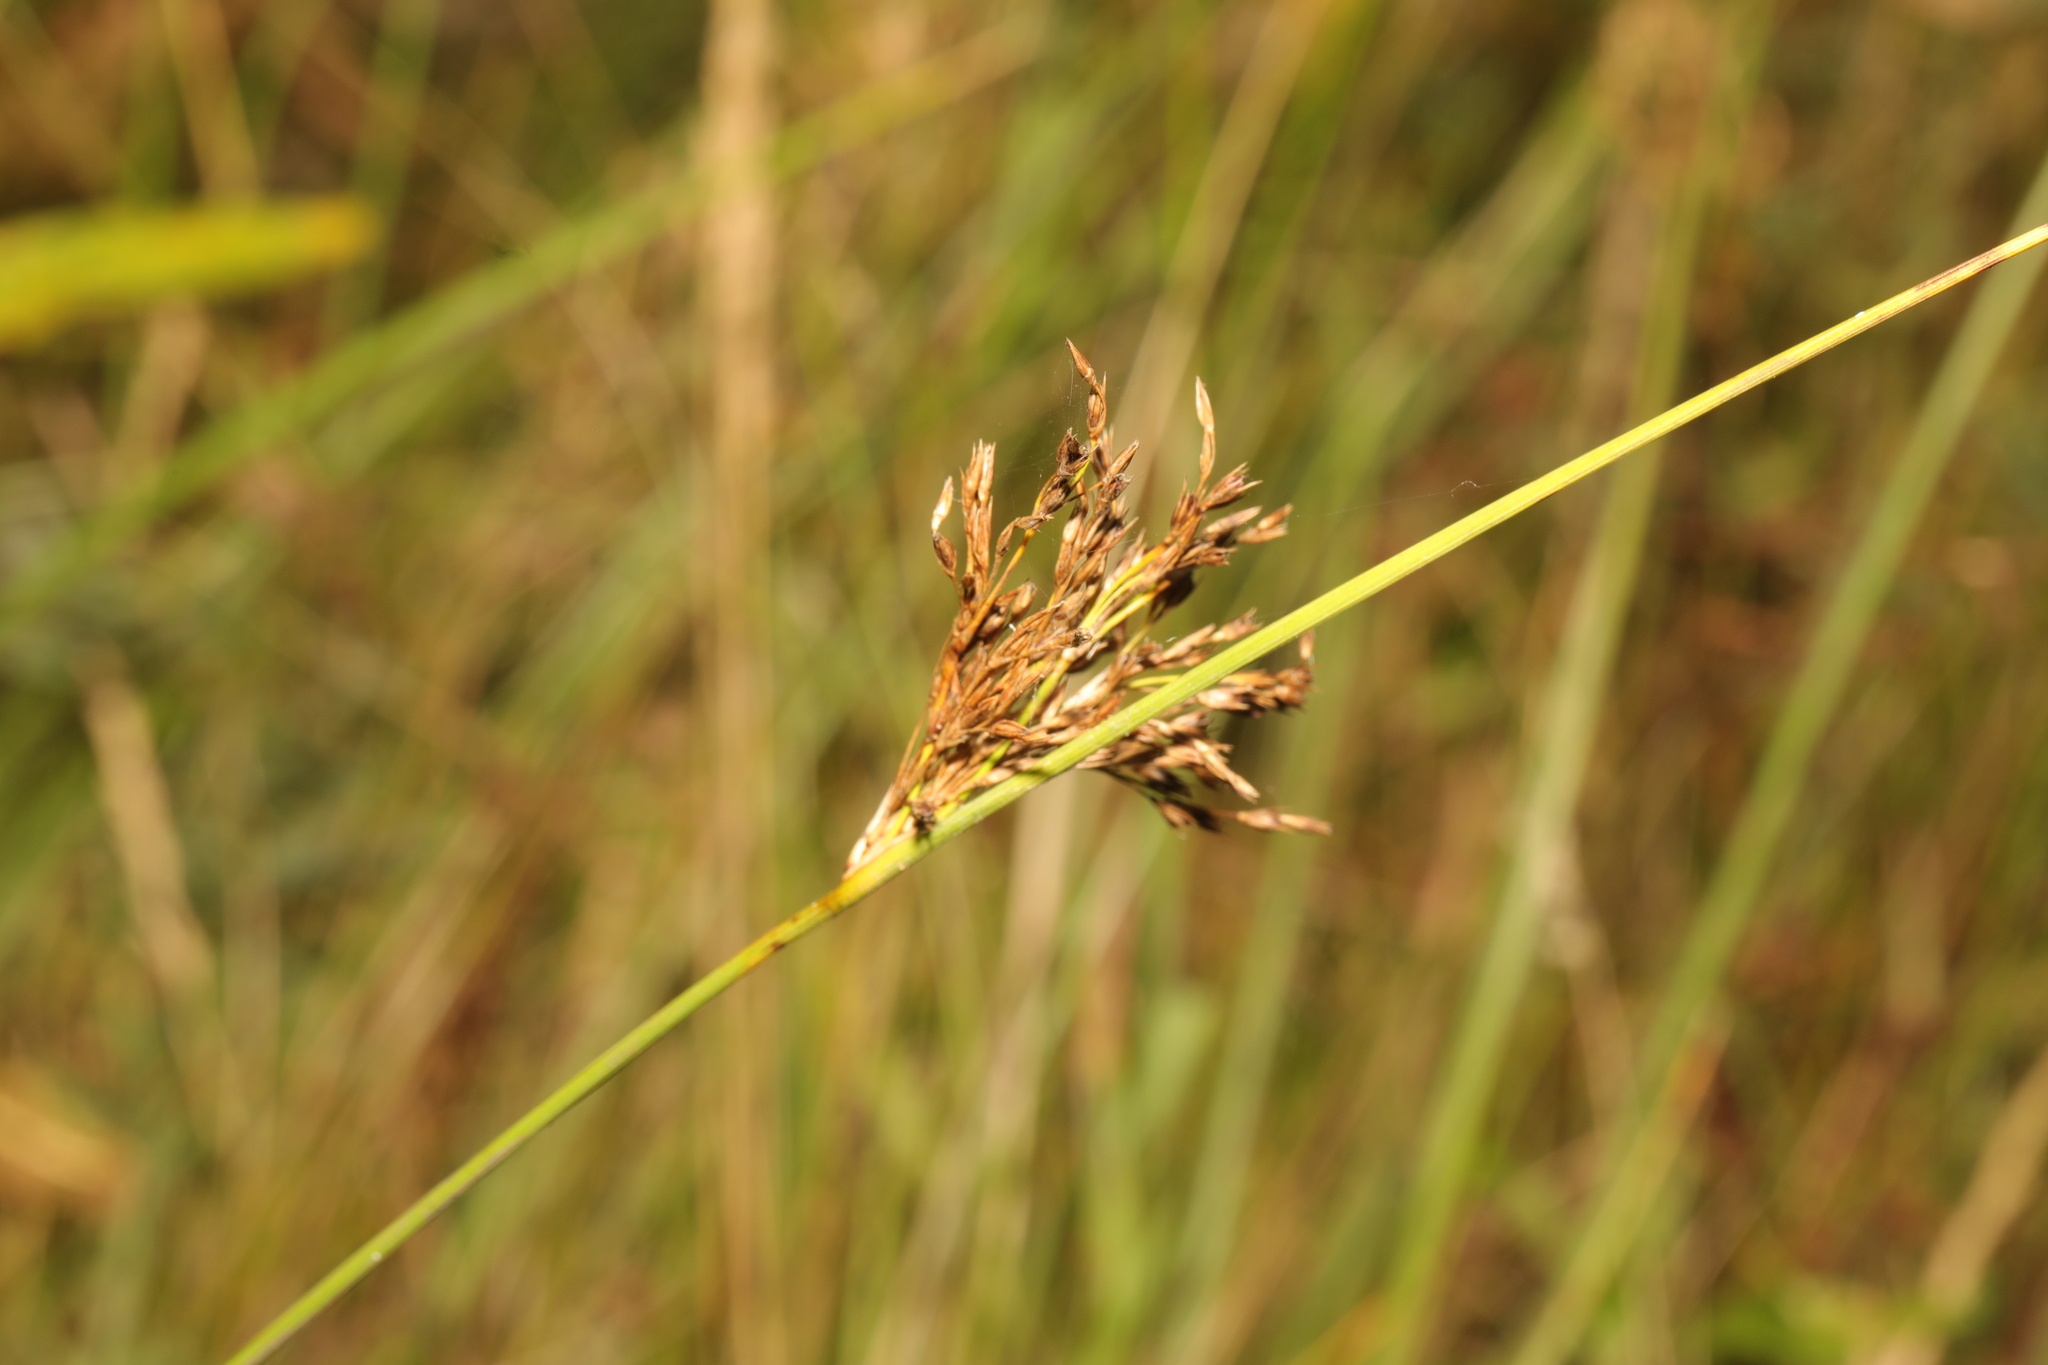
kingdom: Plantae
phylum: Tracheophyta
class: Liliopsida
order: Poales
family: Juncaceae
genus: Juncus
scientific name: Juncus inflexus
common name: Hard rush
